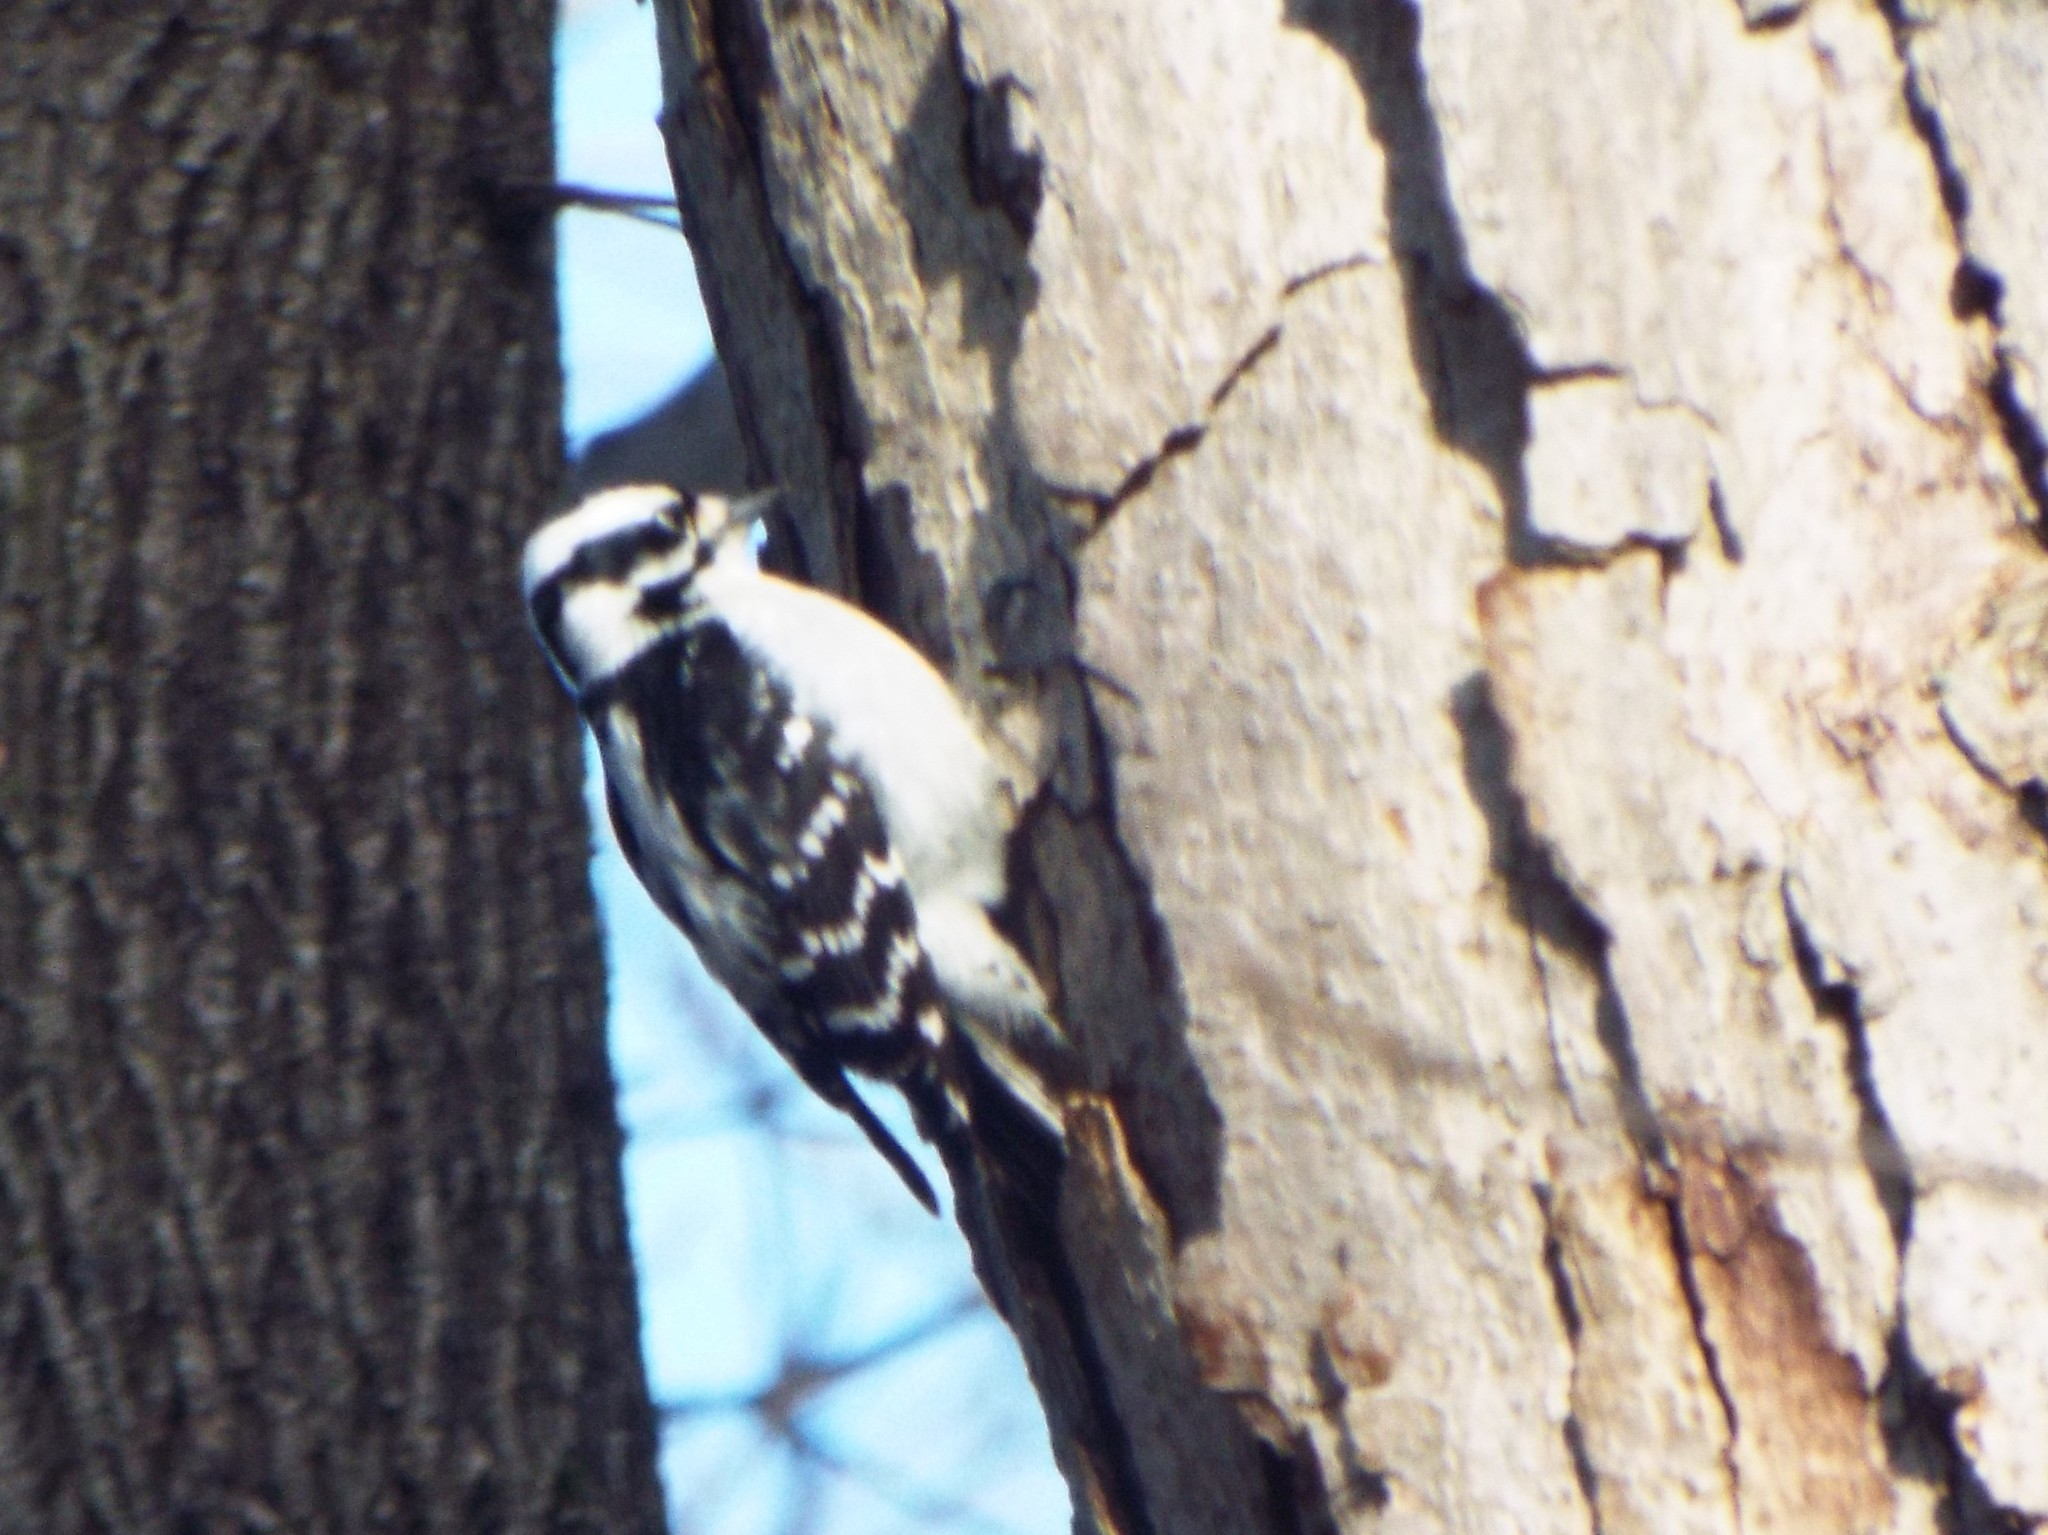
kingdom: Animalia
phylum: Chordata
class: Aves
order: Piciformes
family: Picidae
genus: Dryobates
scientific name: Dryobates pubescens
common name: Downy woodpecker
